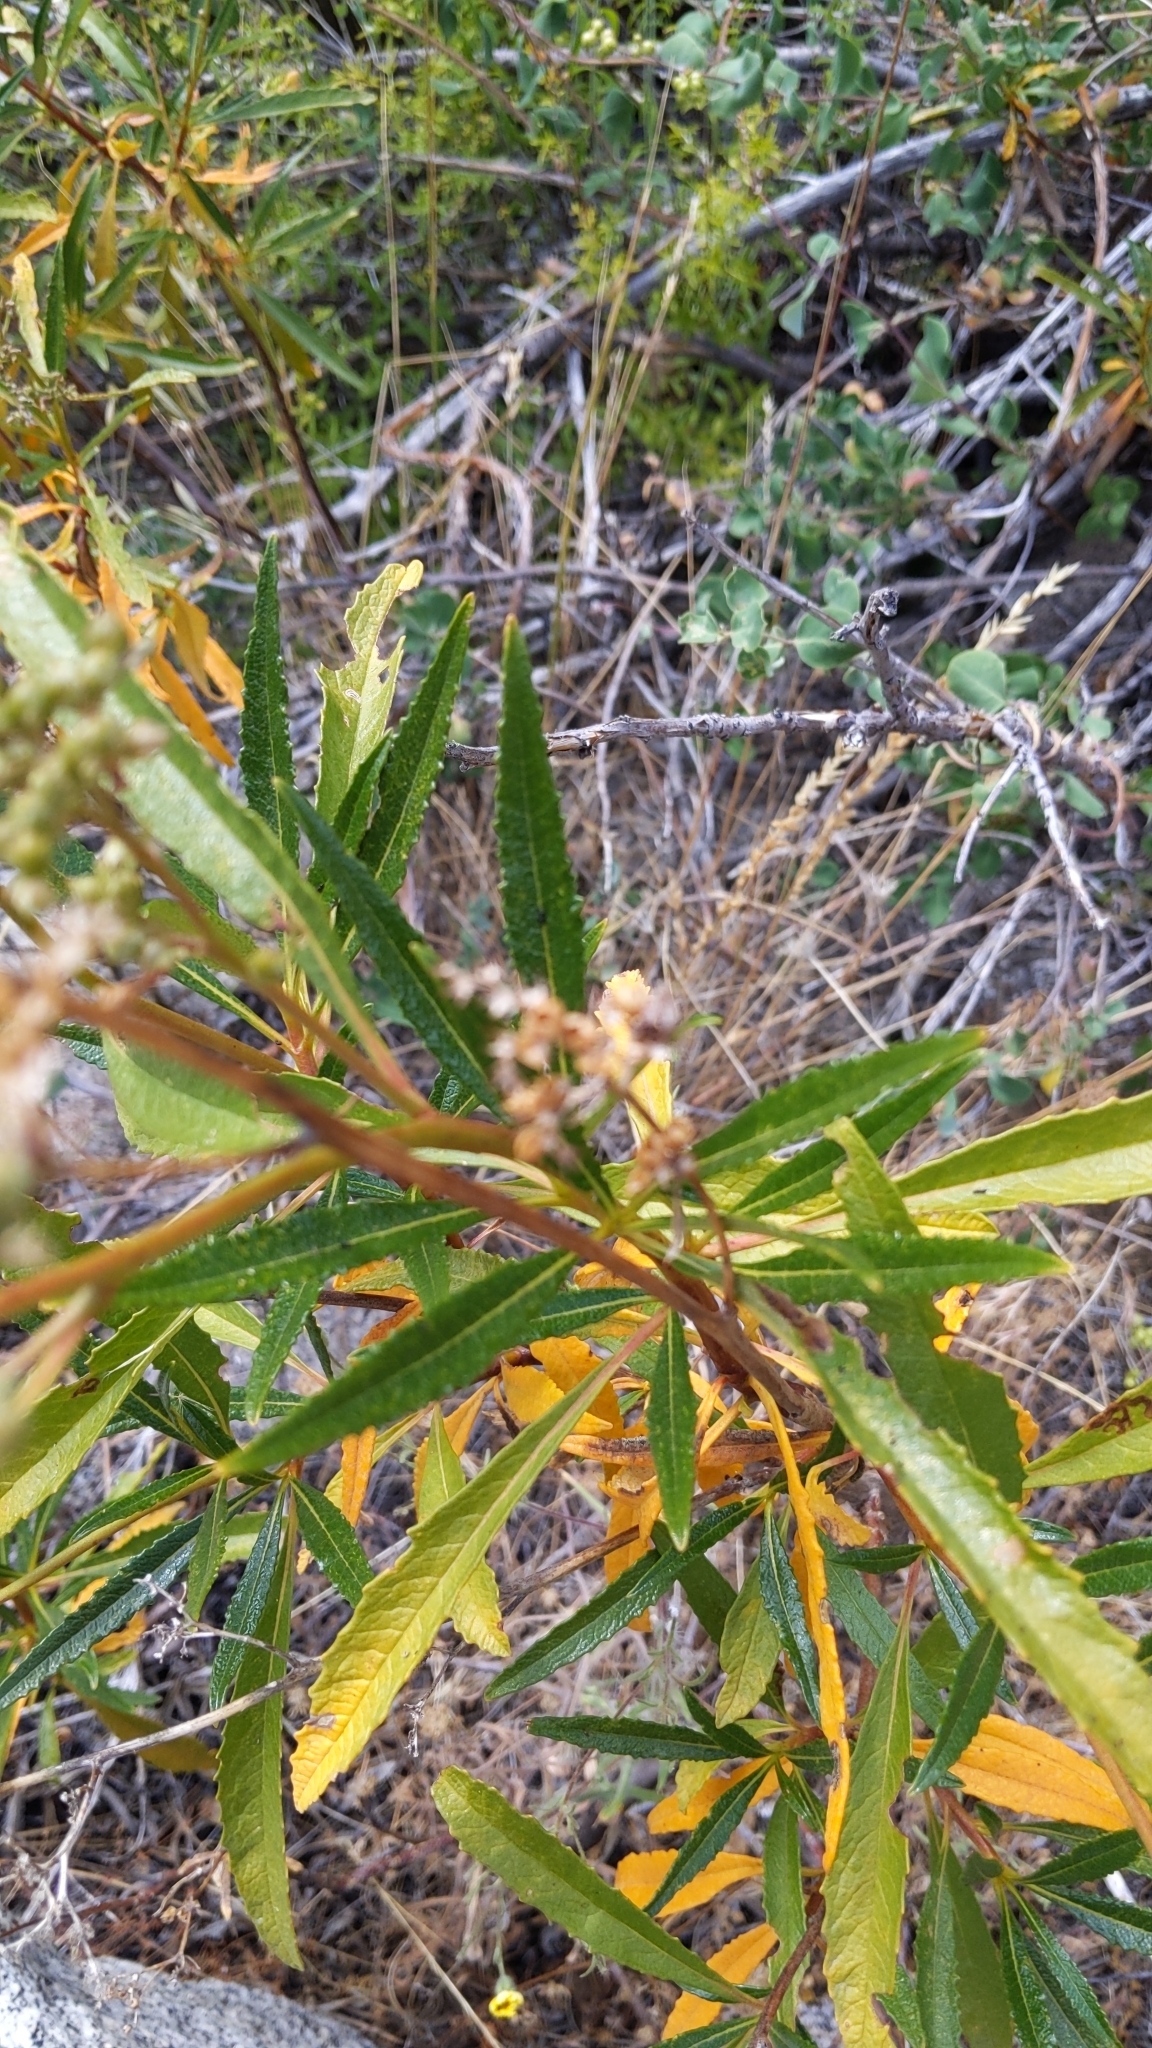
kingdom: Plantae
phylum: Tracheophyta
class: Magnoliopsida
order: Boraginales
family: Namaceae
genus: Eriodictyon
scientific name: Eriodictyon californicum
